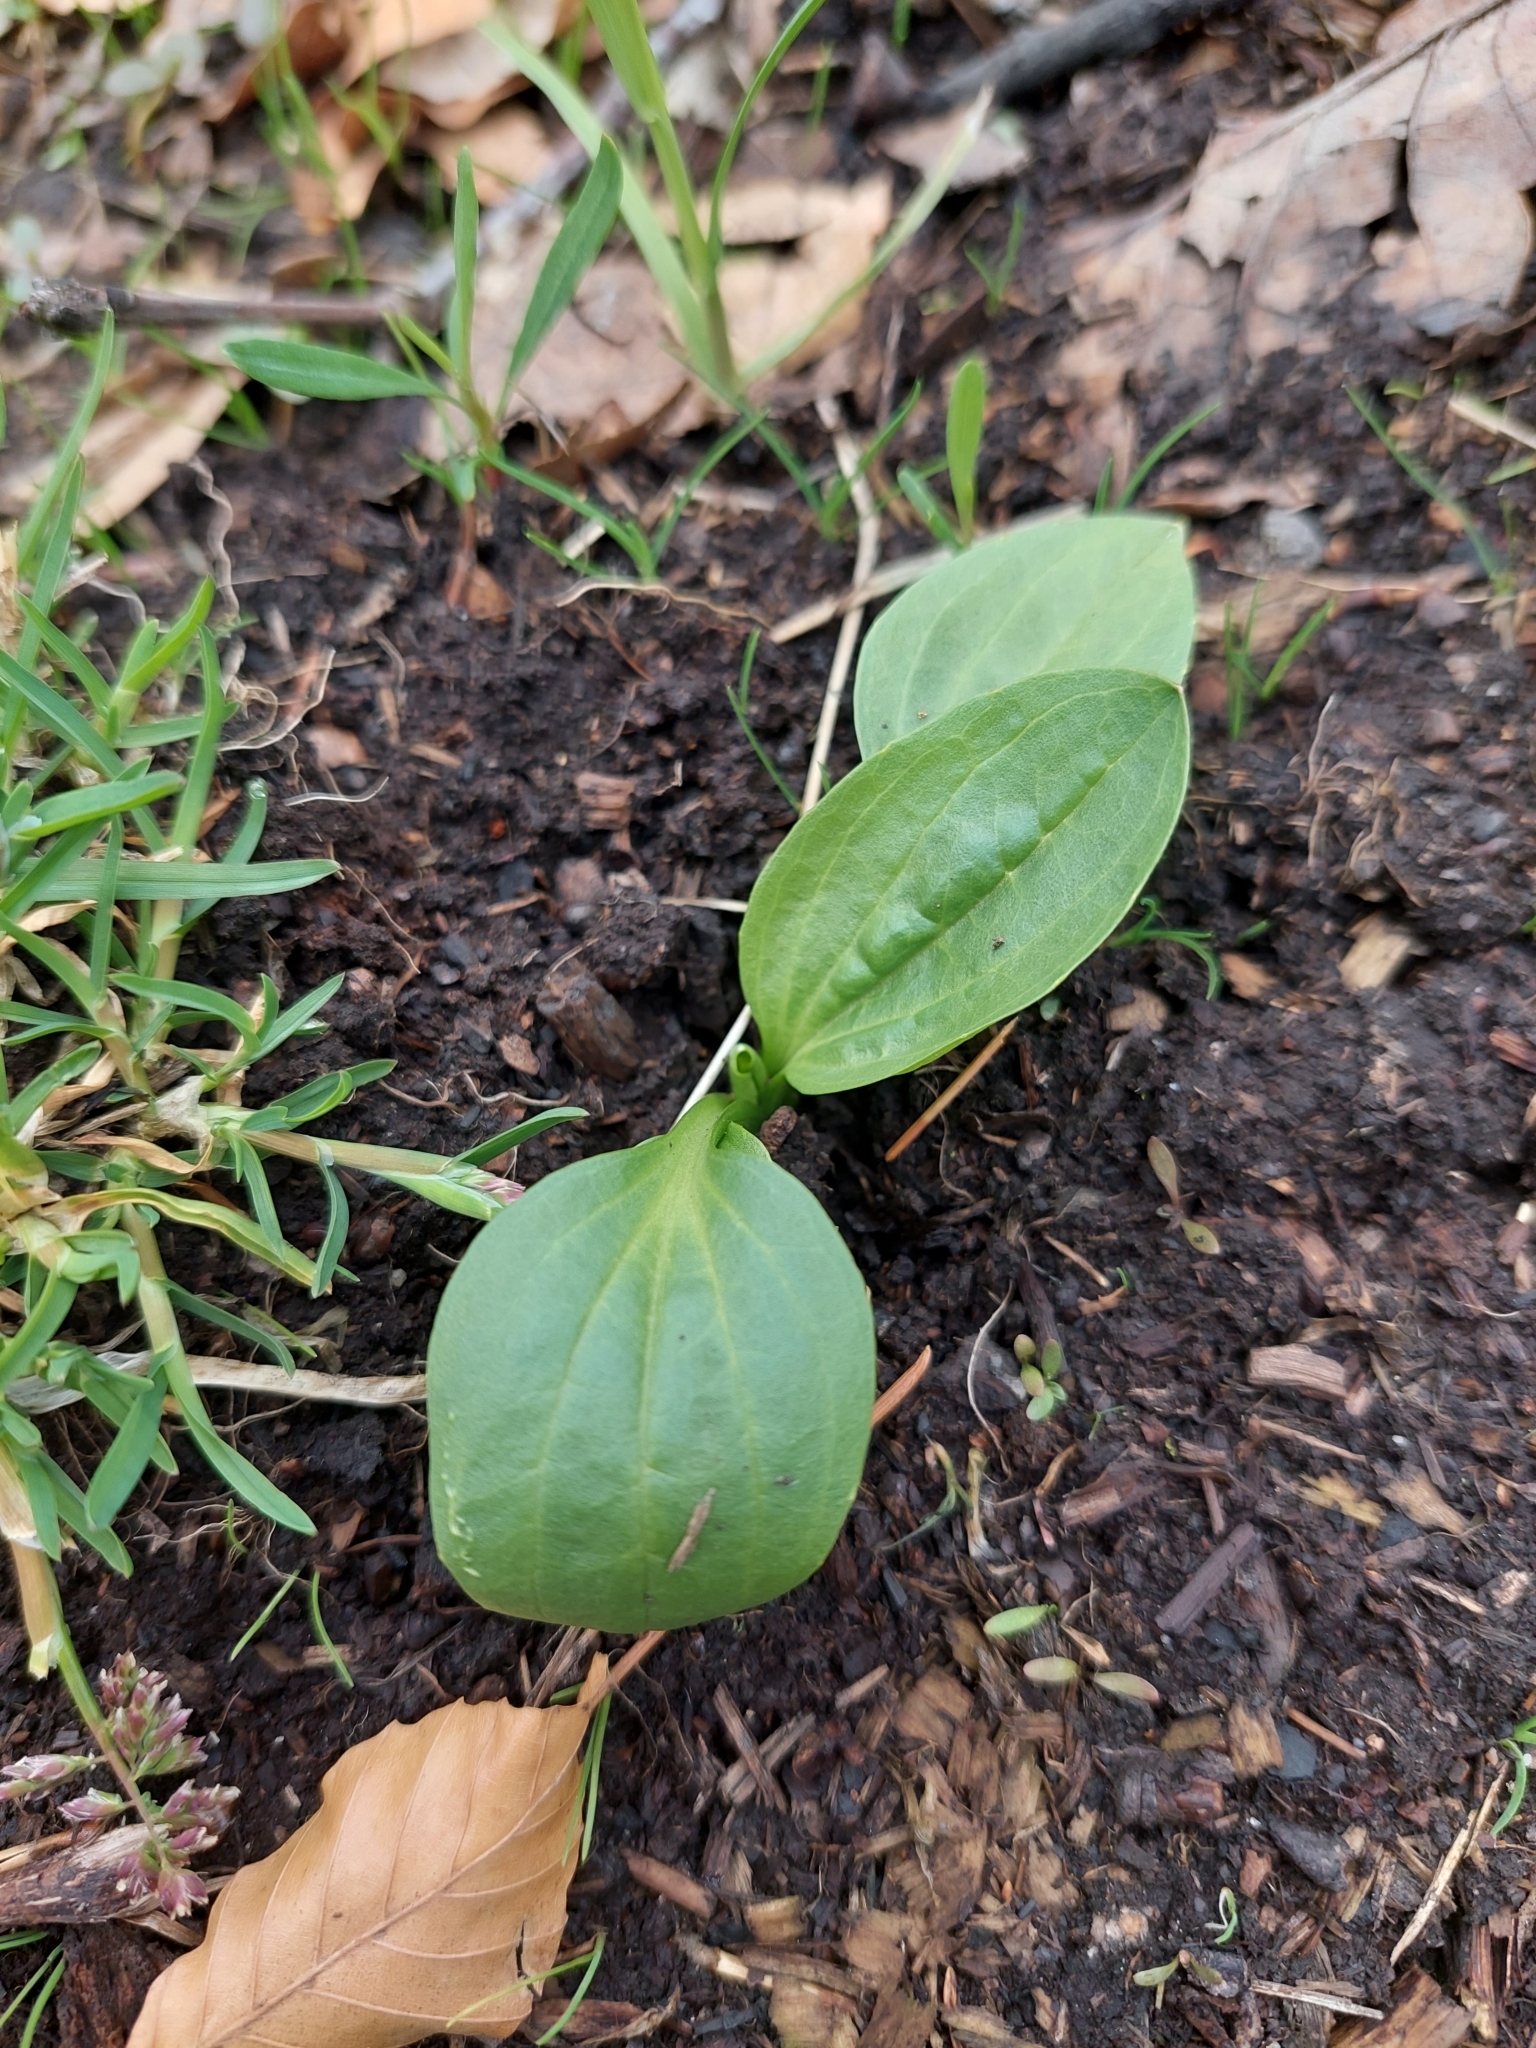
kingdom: Plantae
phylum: Tracheophyta
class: Magnoliopsida
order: Lamiales
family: Plantaginaceae
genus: Plantago
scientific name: Plantago major
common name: Common plantain
